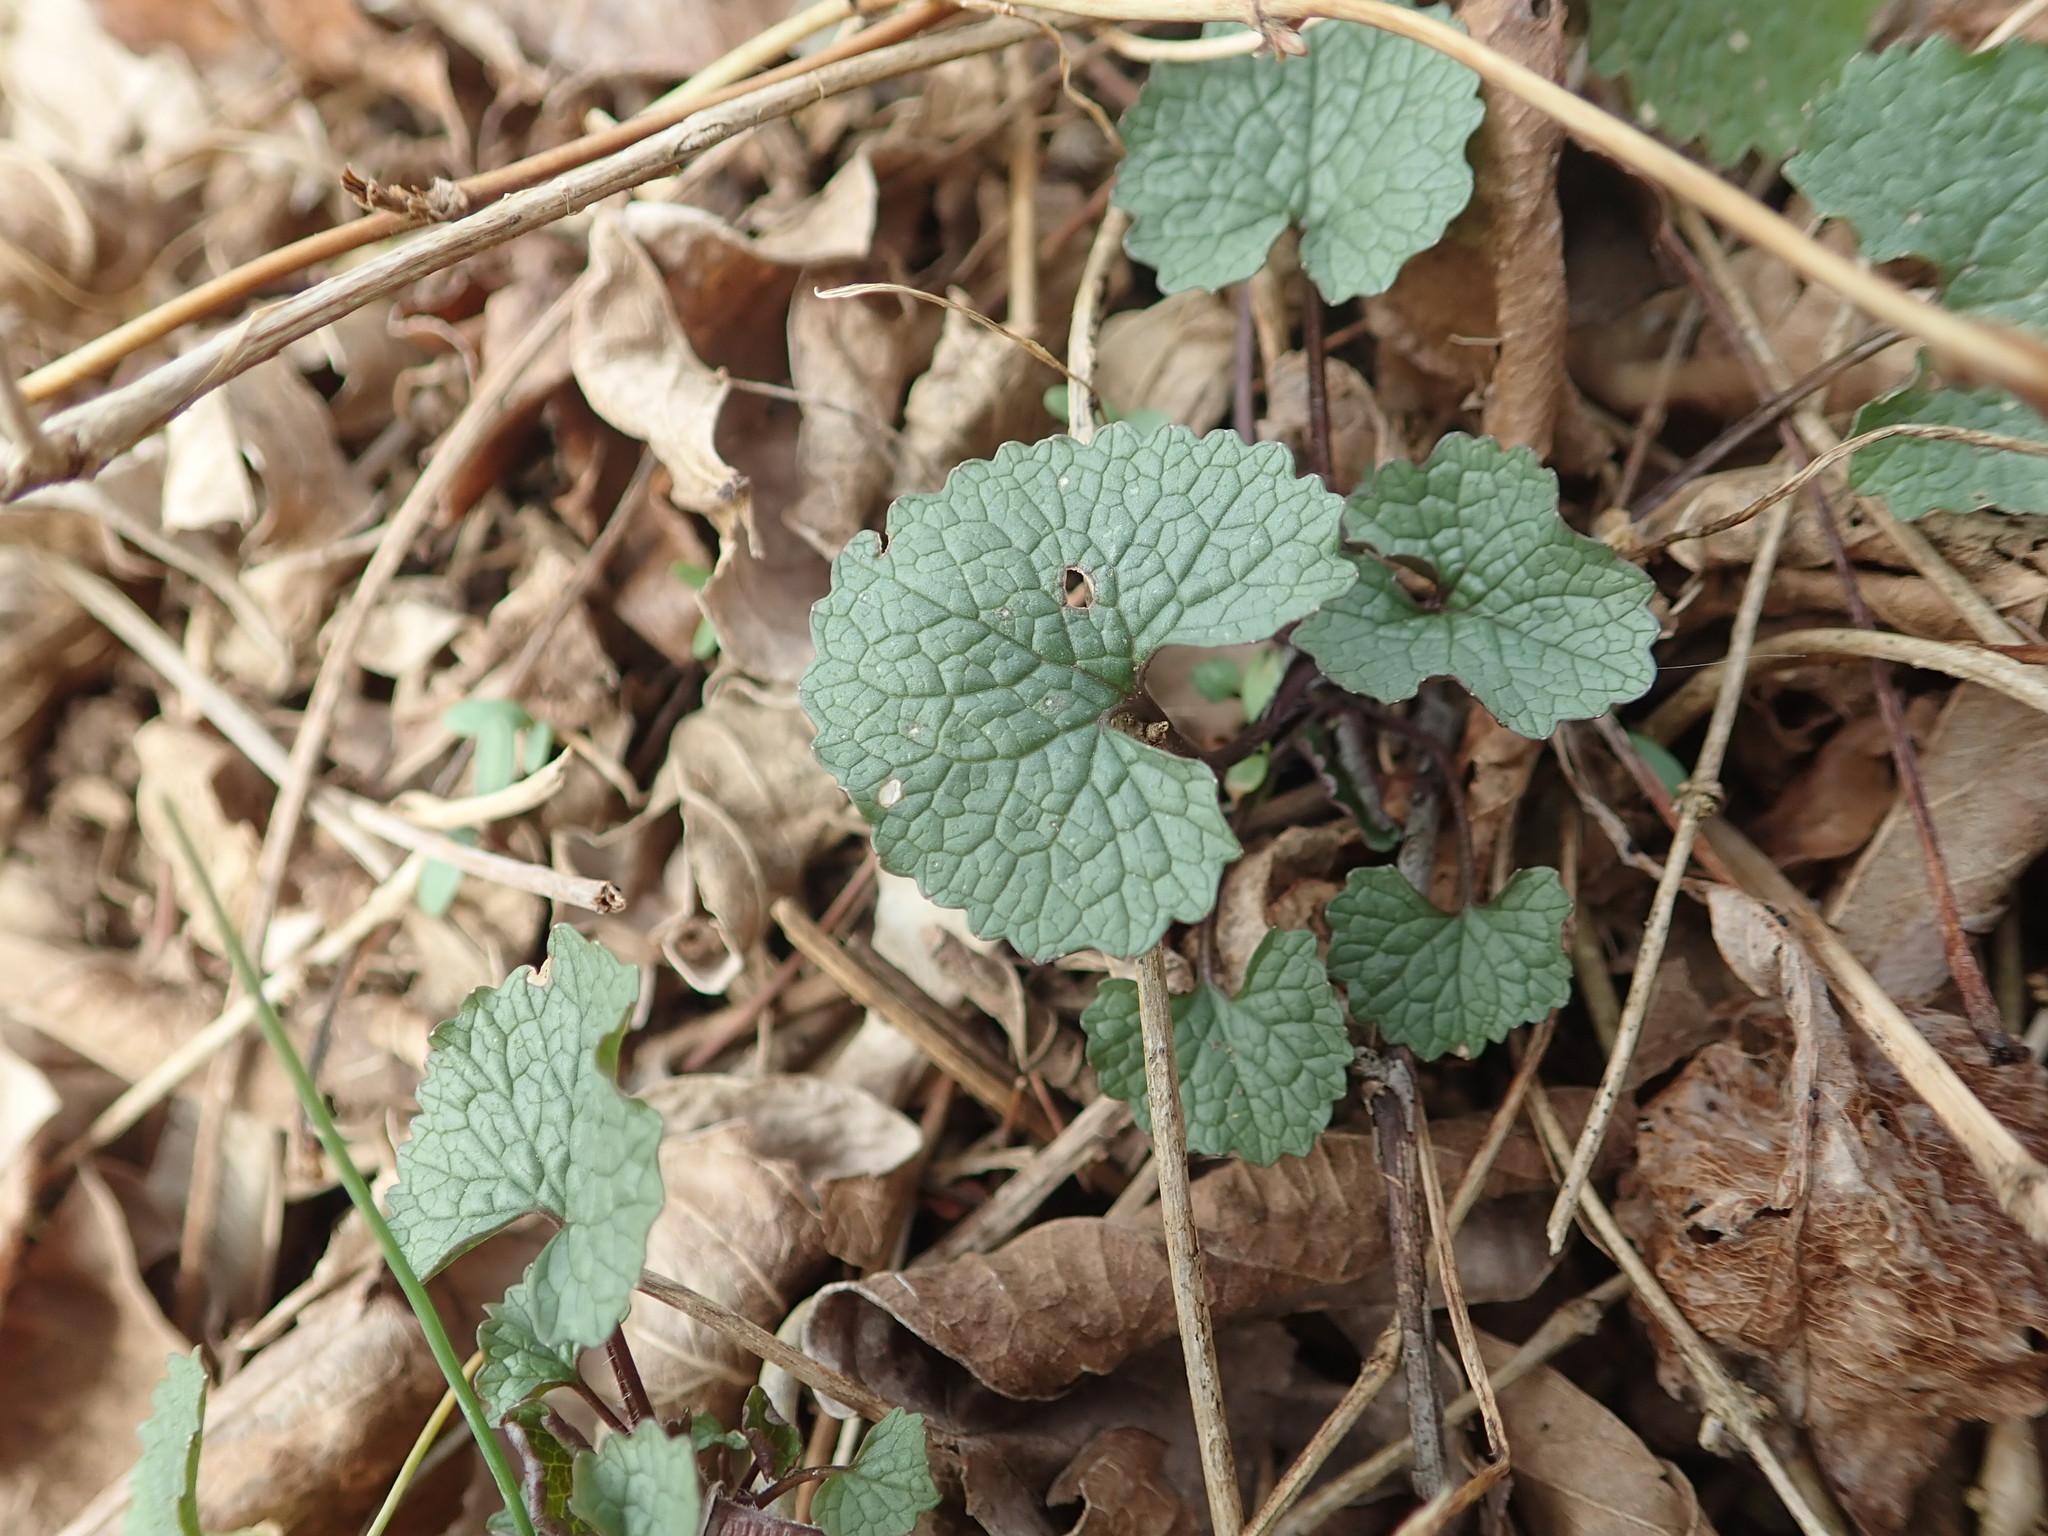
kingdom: Plantae
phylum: Tracheophyta
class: Magnoliopsida
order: Brassicales
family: Brassicaceae
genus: Alliaria
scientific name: Alliaria petiolata
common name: Garlic mustard
